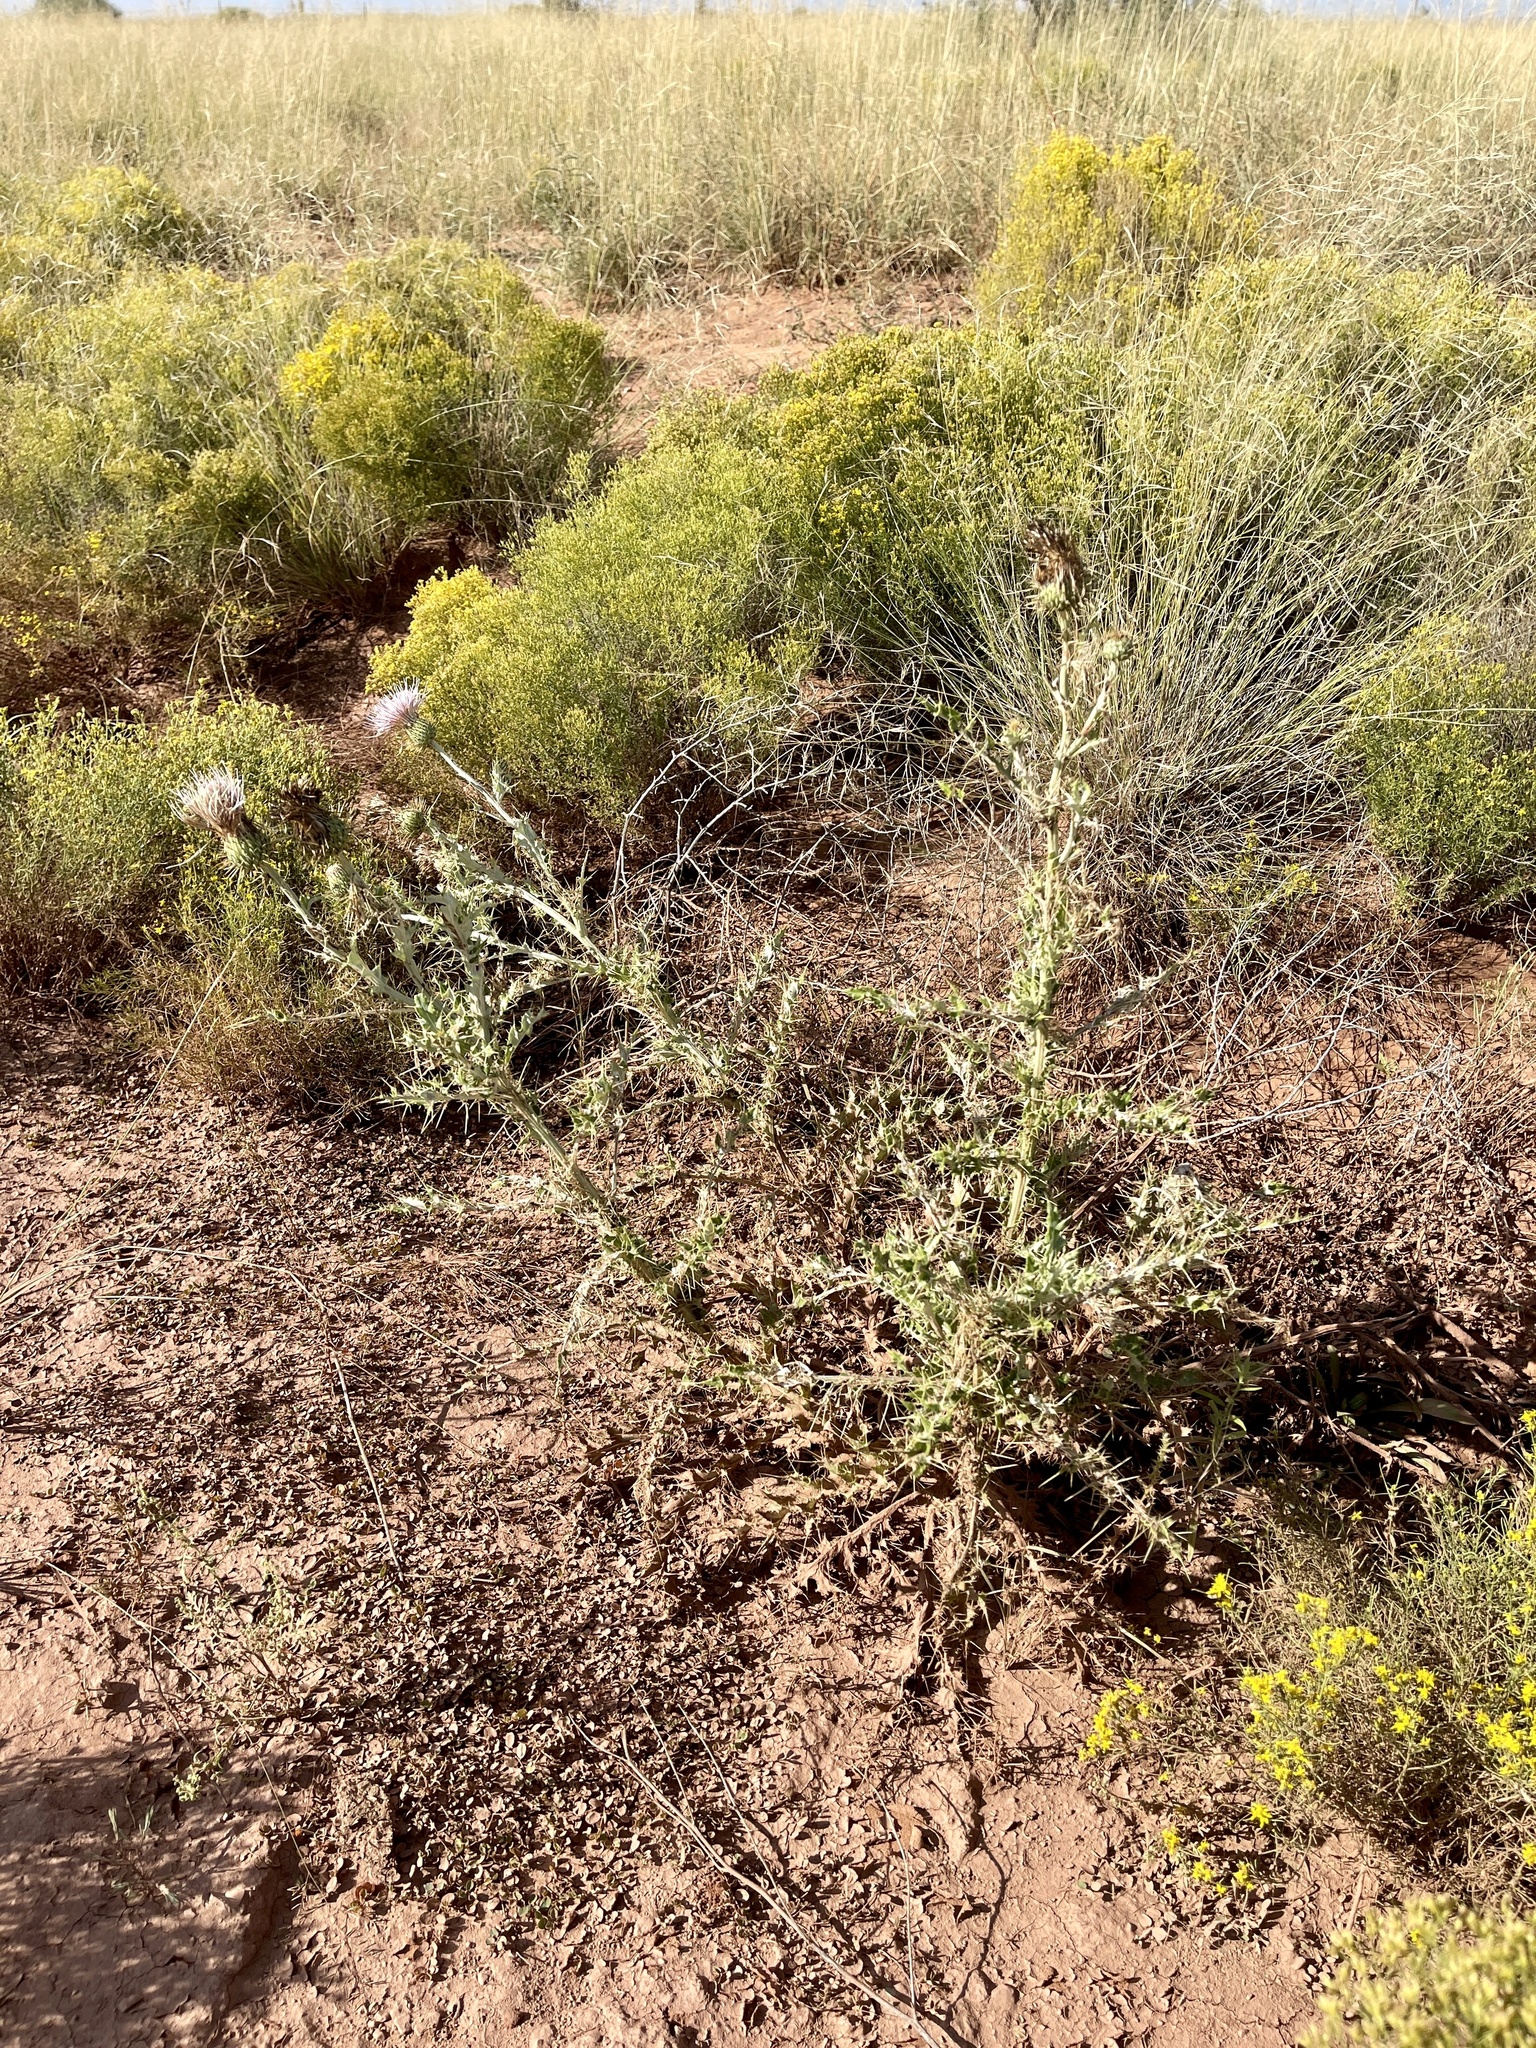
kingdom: Plantae
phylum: Tracheophyta
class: Magnoliopsida
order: Asterales
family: Asteraceae
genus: Cirsium
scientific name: Cirsium ochrocentrum
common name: Yellow-spine thistle
